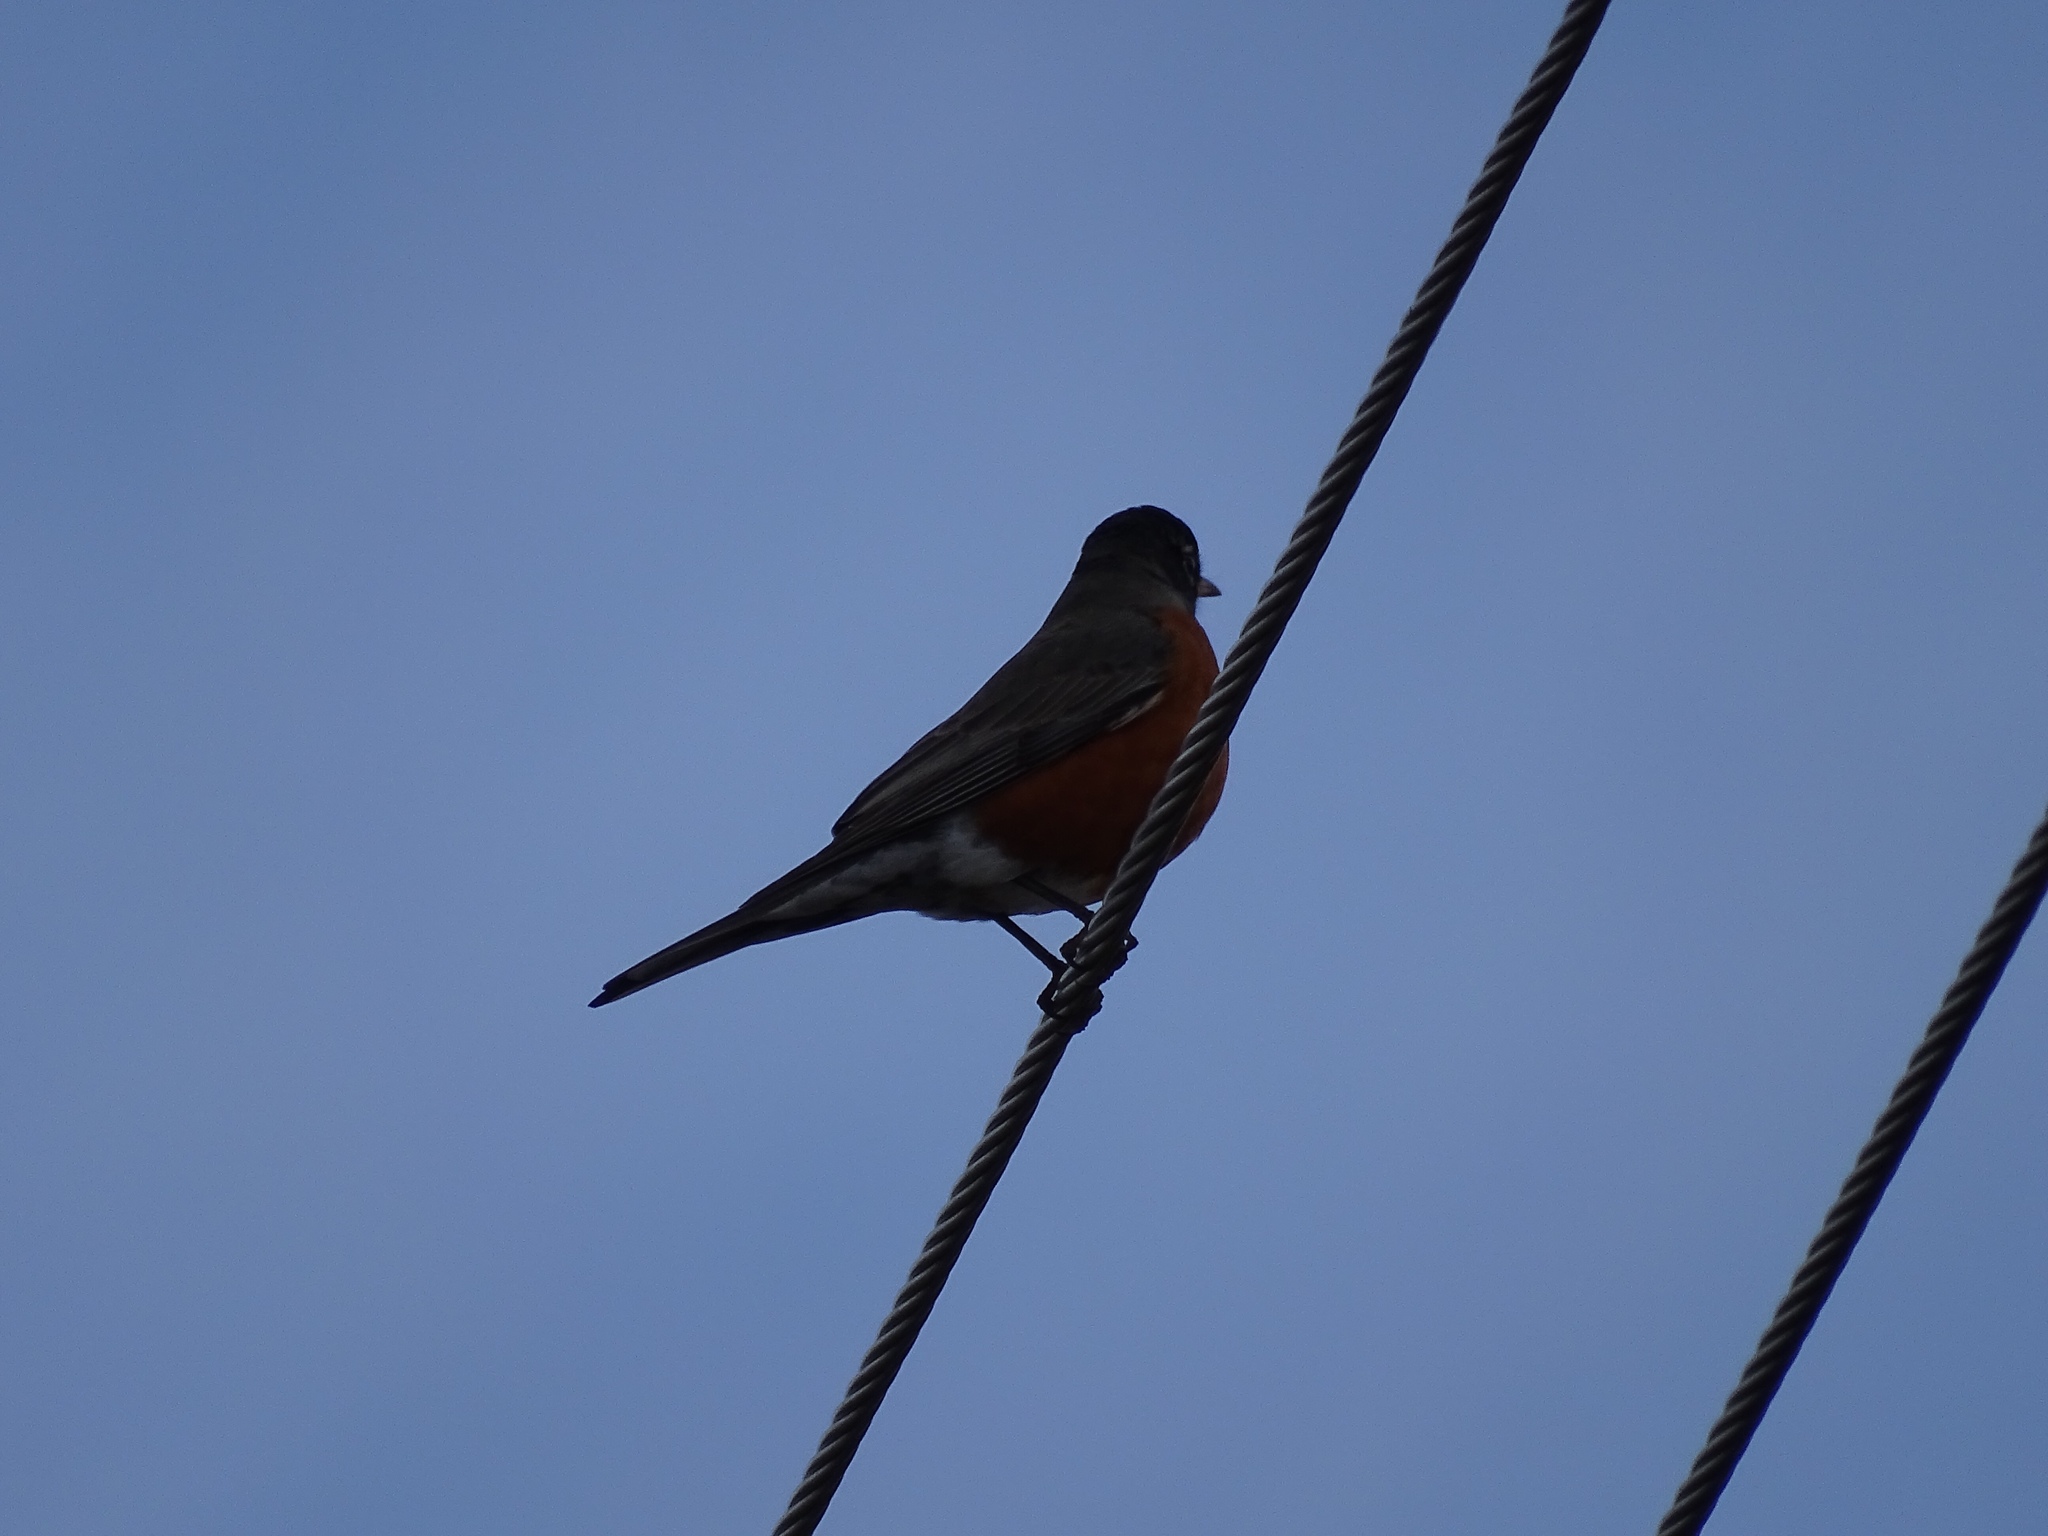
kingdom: Animalia
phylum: Chordata
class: Aves
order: Passeriformes
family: Turdidae
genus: Turdus
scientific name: Turdus migratorius
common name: American robin
